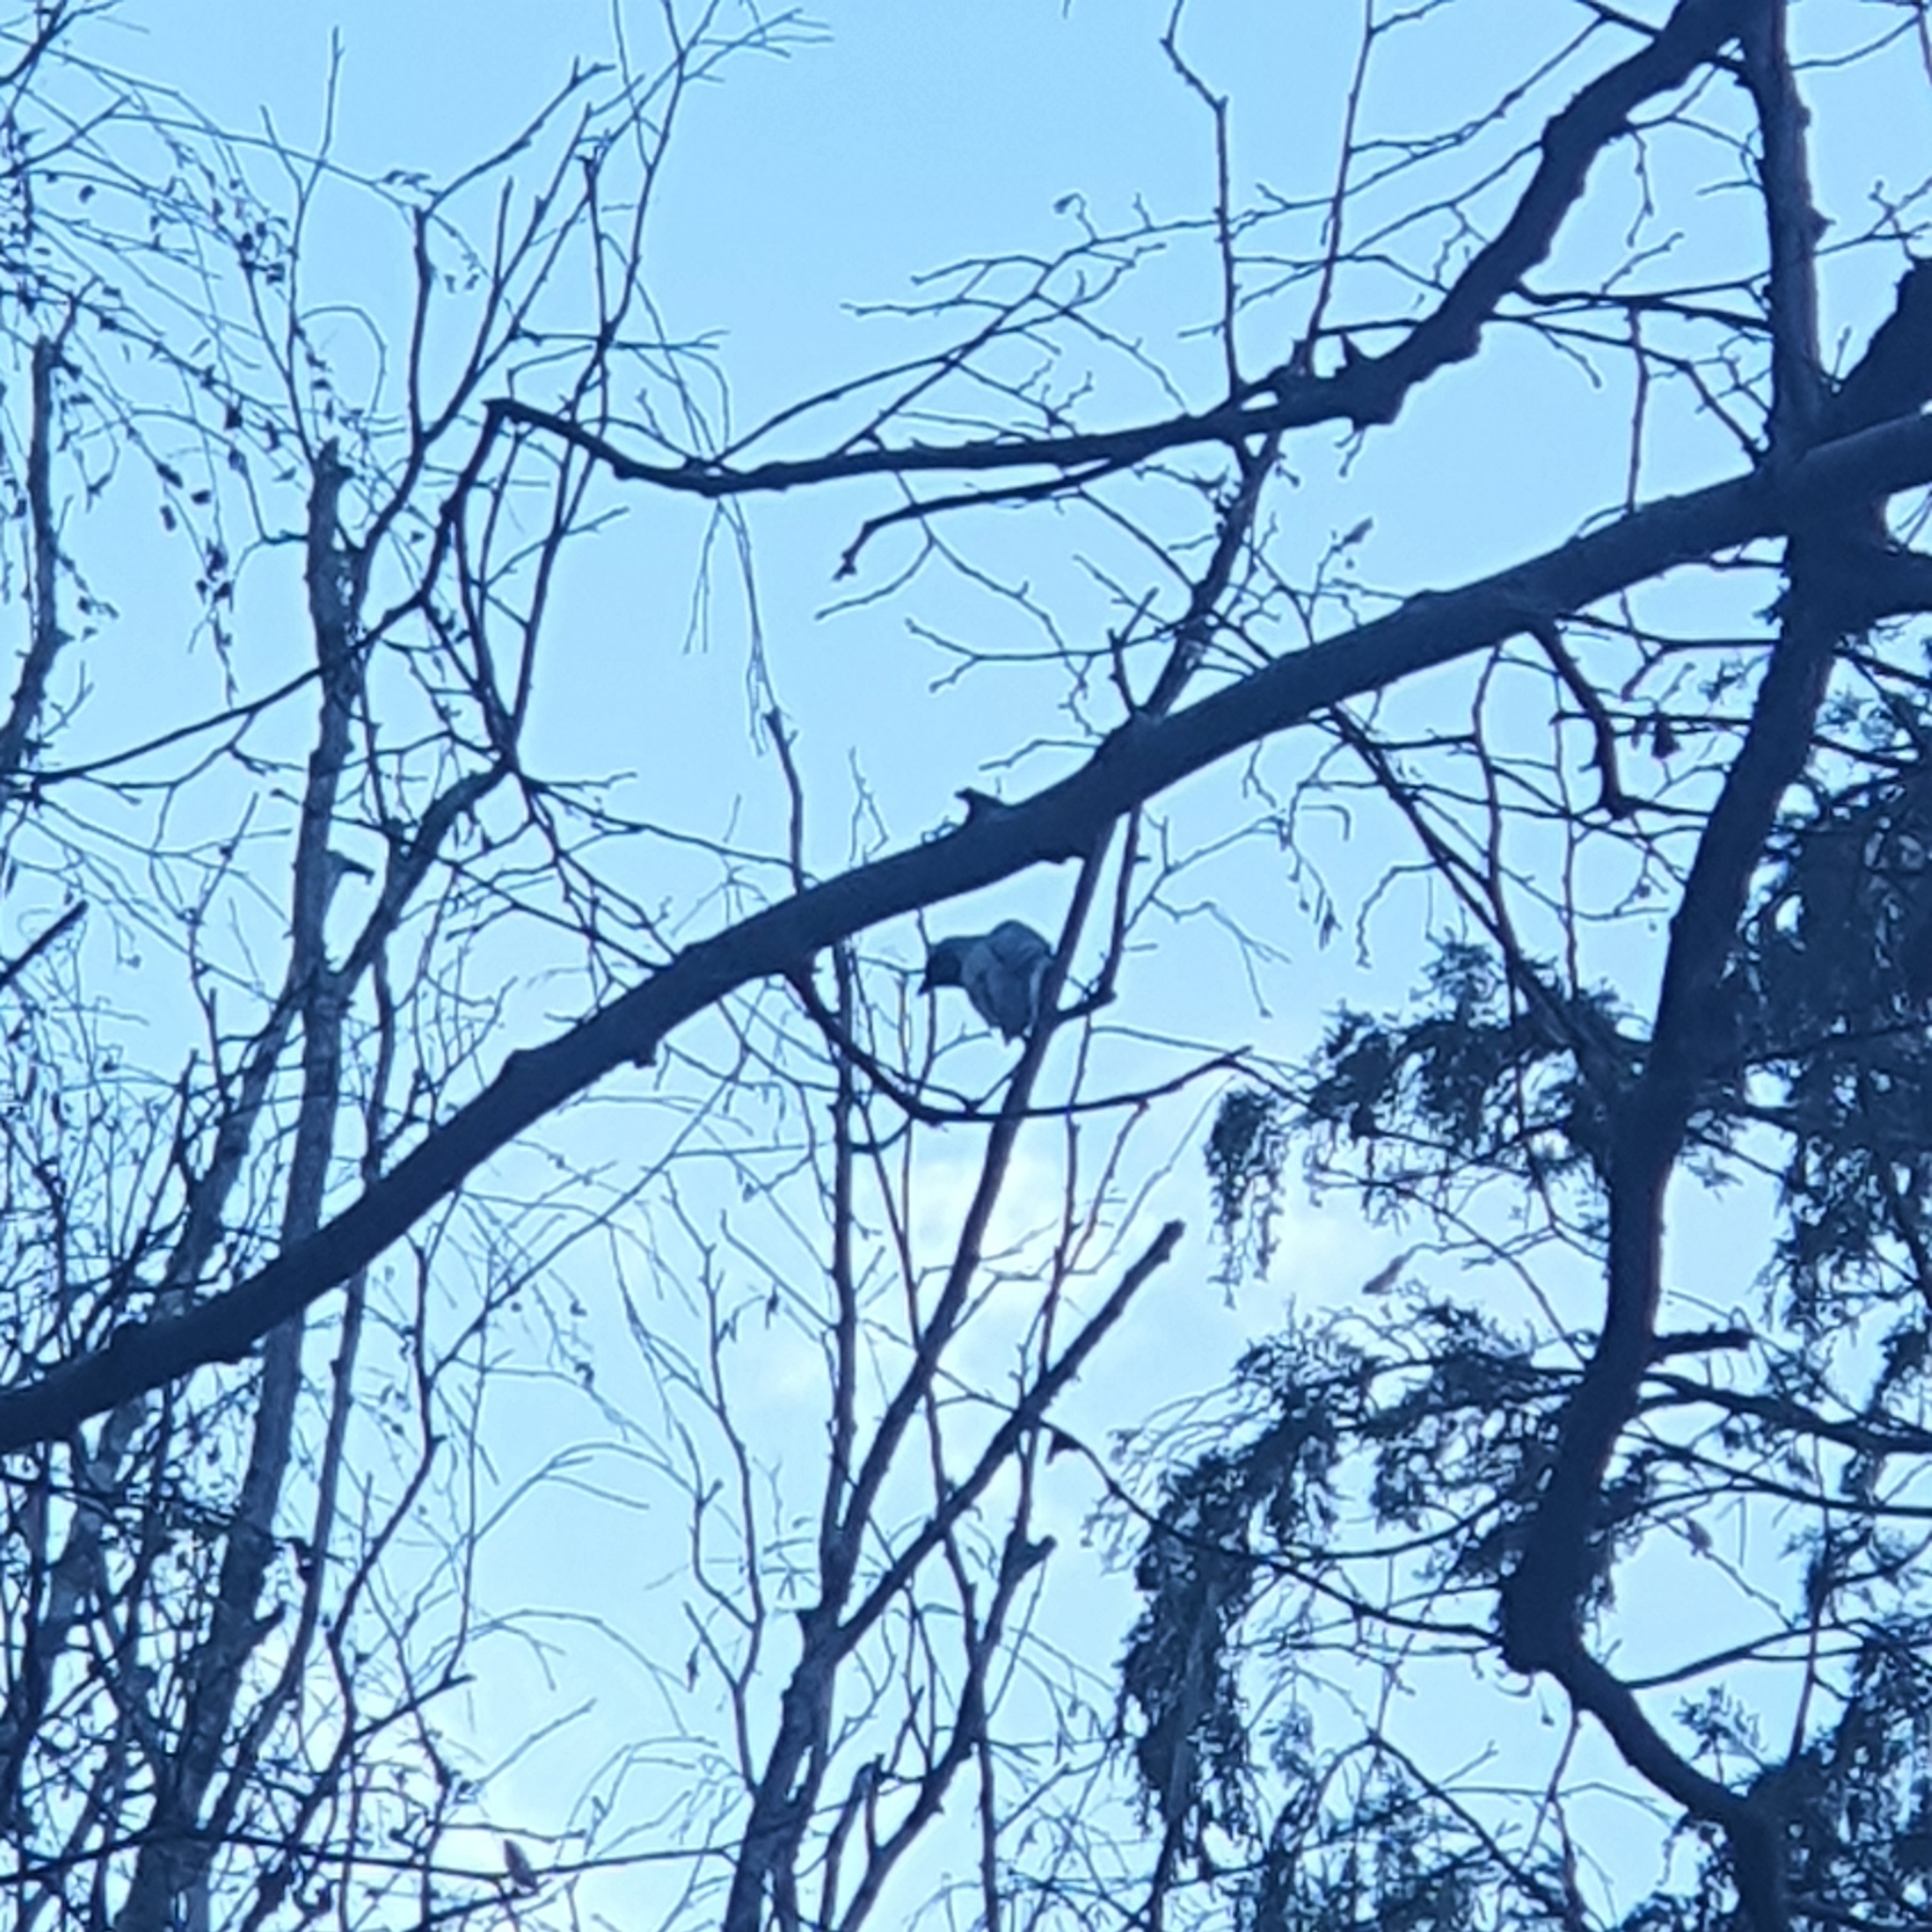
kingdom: Animalia
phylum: Chordata
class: Aves
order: Passeriformes
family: Campephagidae
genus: Coracina
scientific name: Coracina novaehollandiae
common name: Black-faced cuckooshrike
